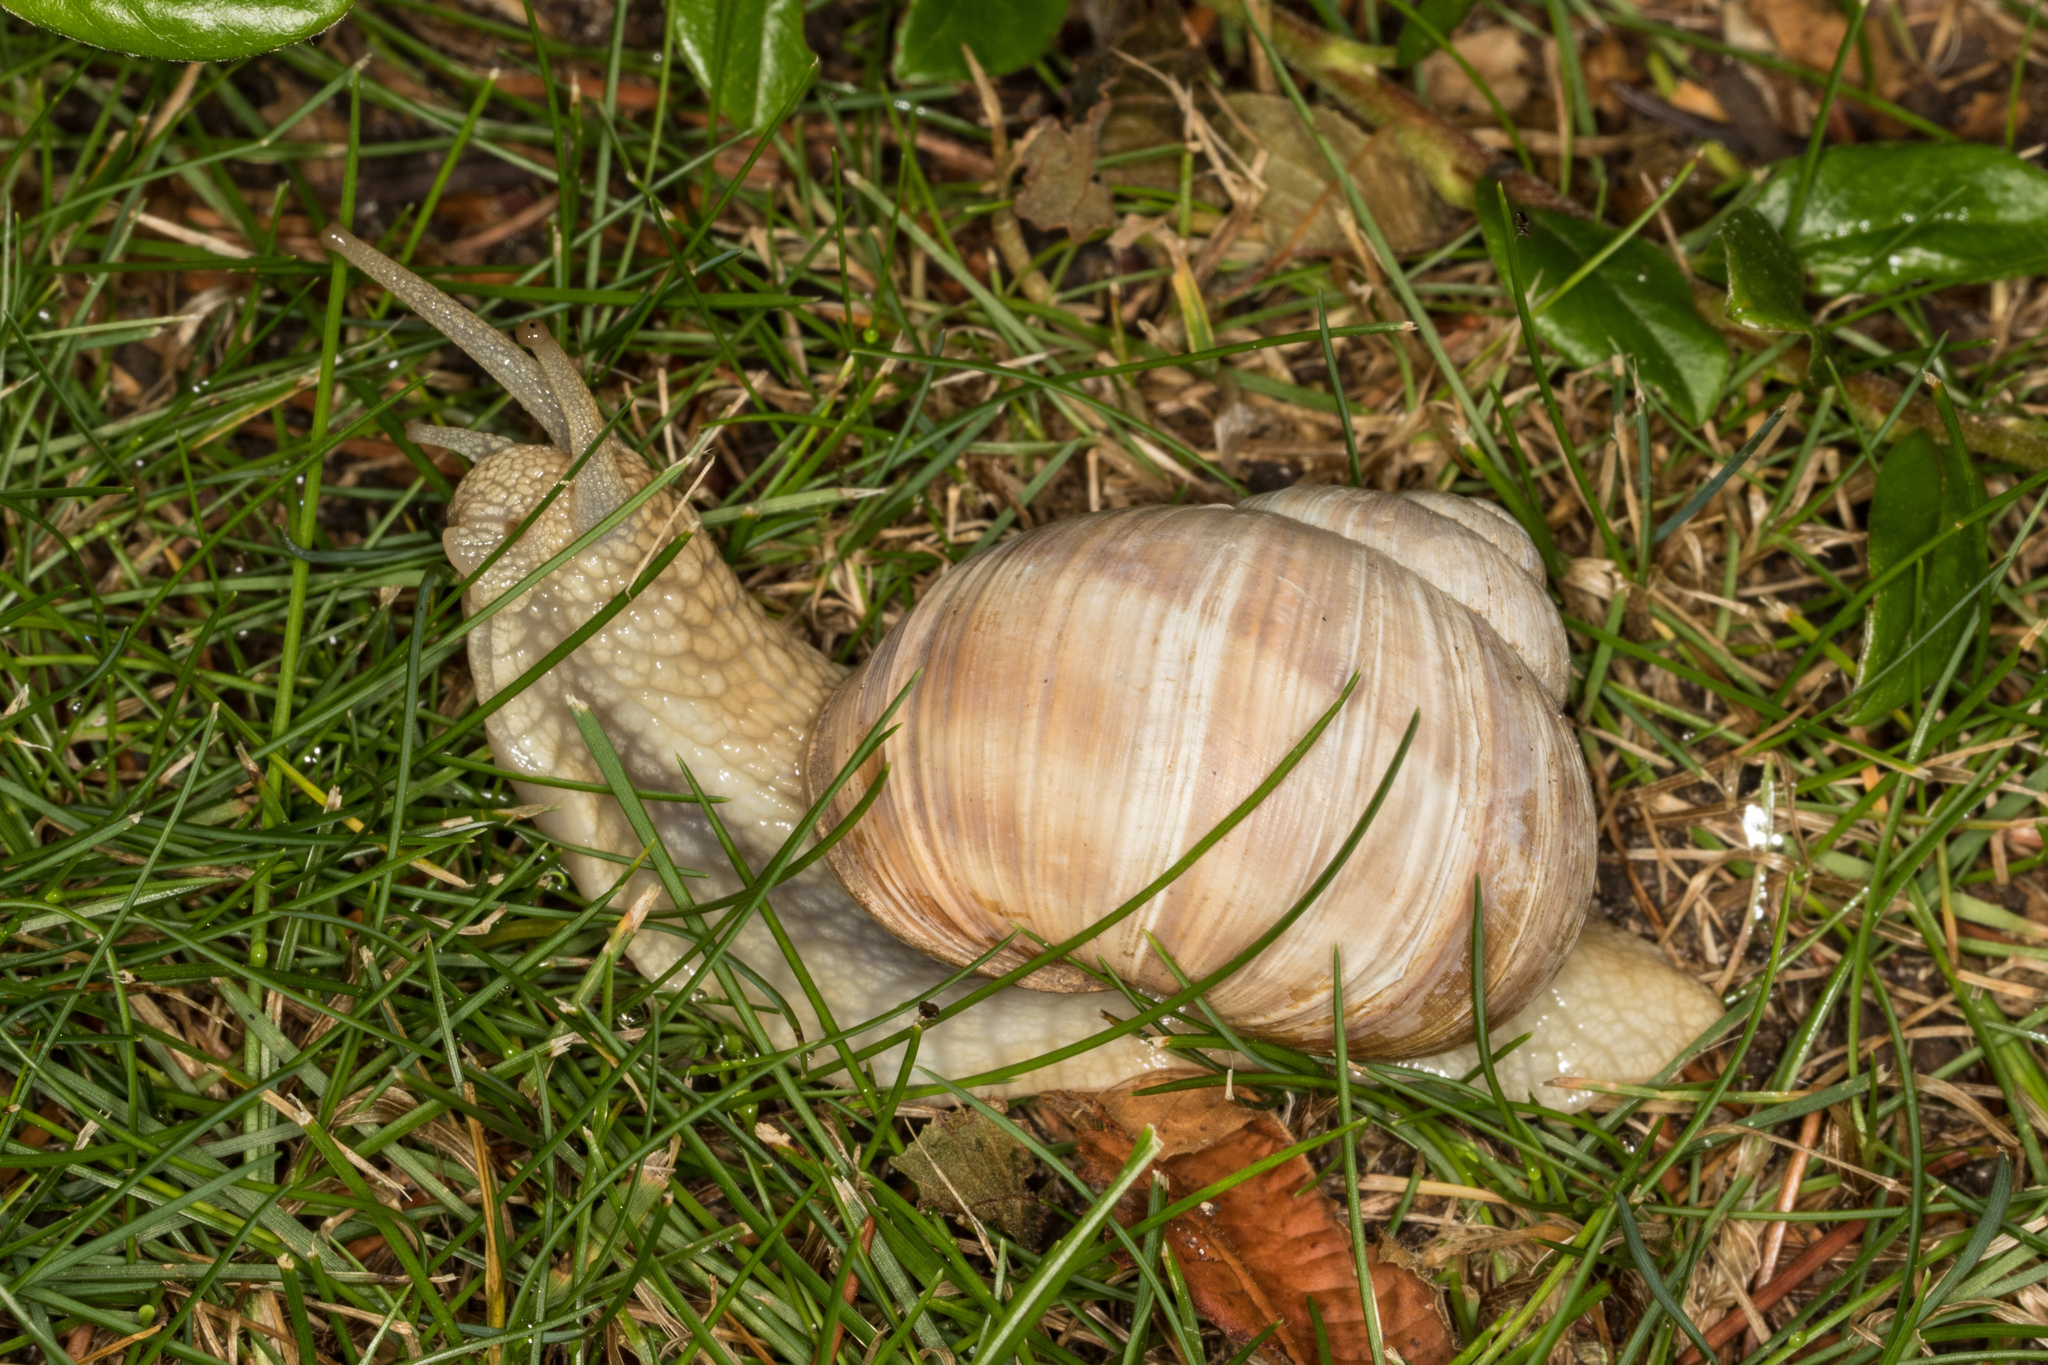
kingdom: Animalia
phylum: Mollusca
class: Gastropoda
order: Stylommatophora
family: Helicidae
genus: Helix
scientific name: Helix pomatia
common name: Roman snail
